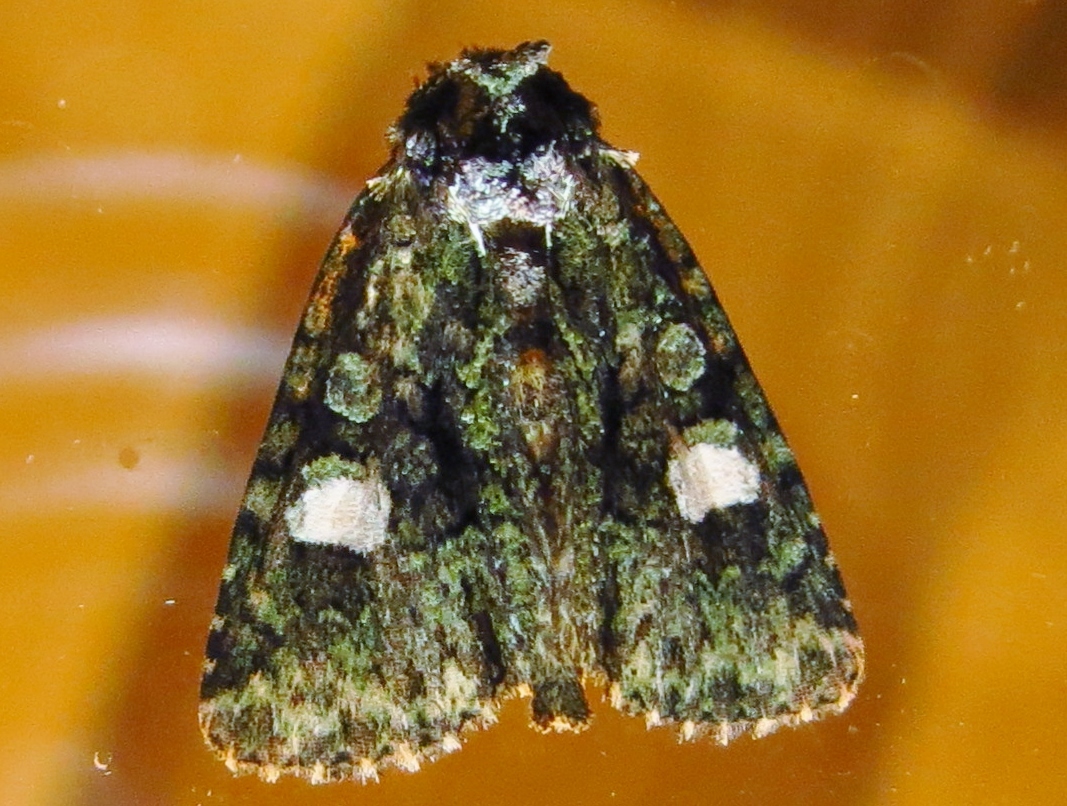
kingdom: Animalia
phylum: Arthropoda
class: Insecta
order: Lepidoptera
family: Noctuidae
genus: Phosphila
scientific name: Phosphila miselioides
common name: Spotted phosphila moth
